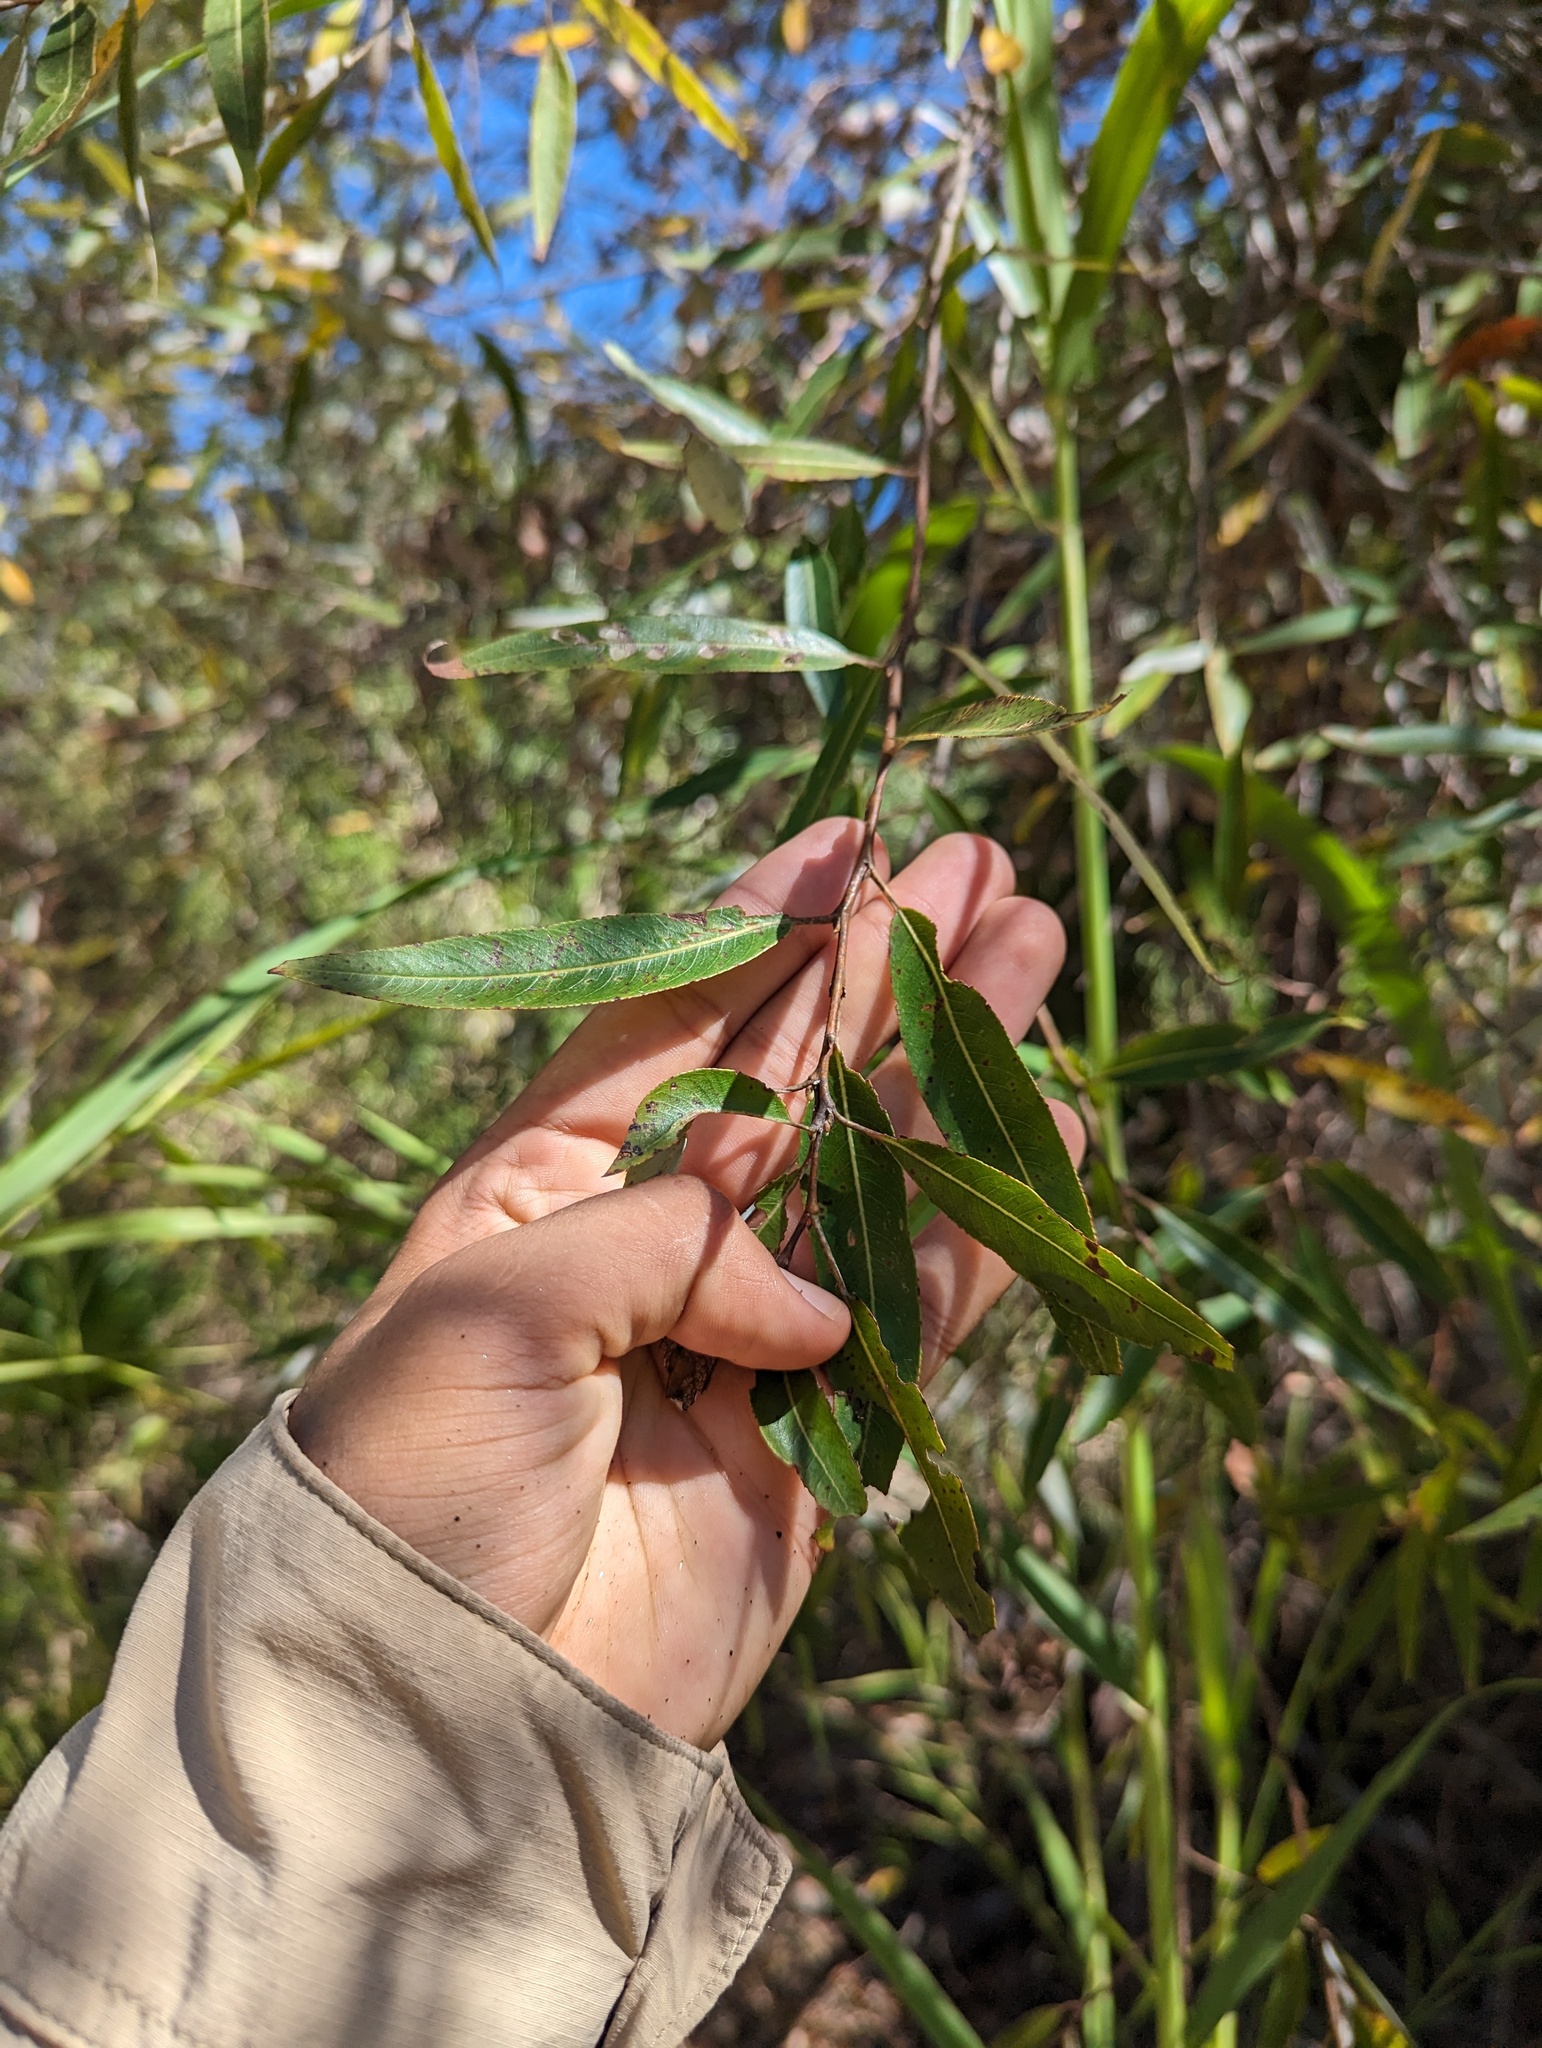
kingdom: Plantae
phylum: Tracheophyta
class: Magnoliopsida
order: Malpighiales
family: Salicaceae
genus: Salix
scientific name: Salix bonplandiana
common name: Bonpland’s willow
